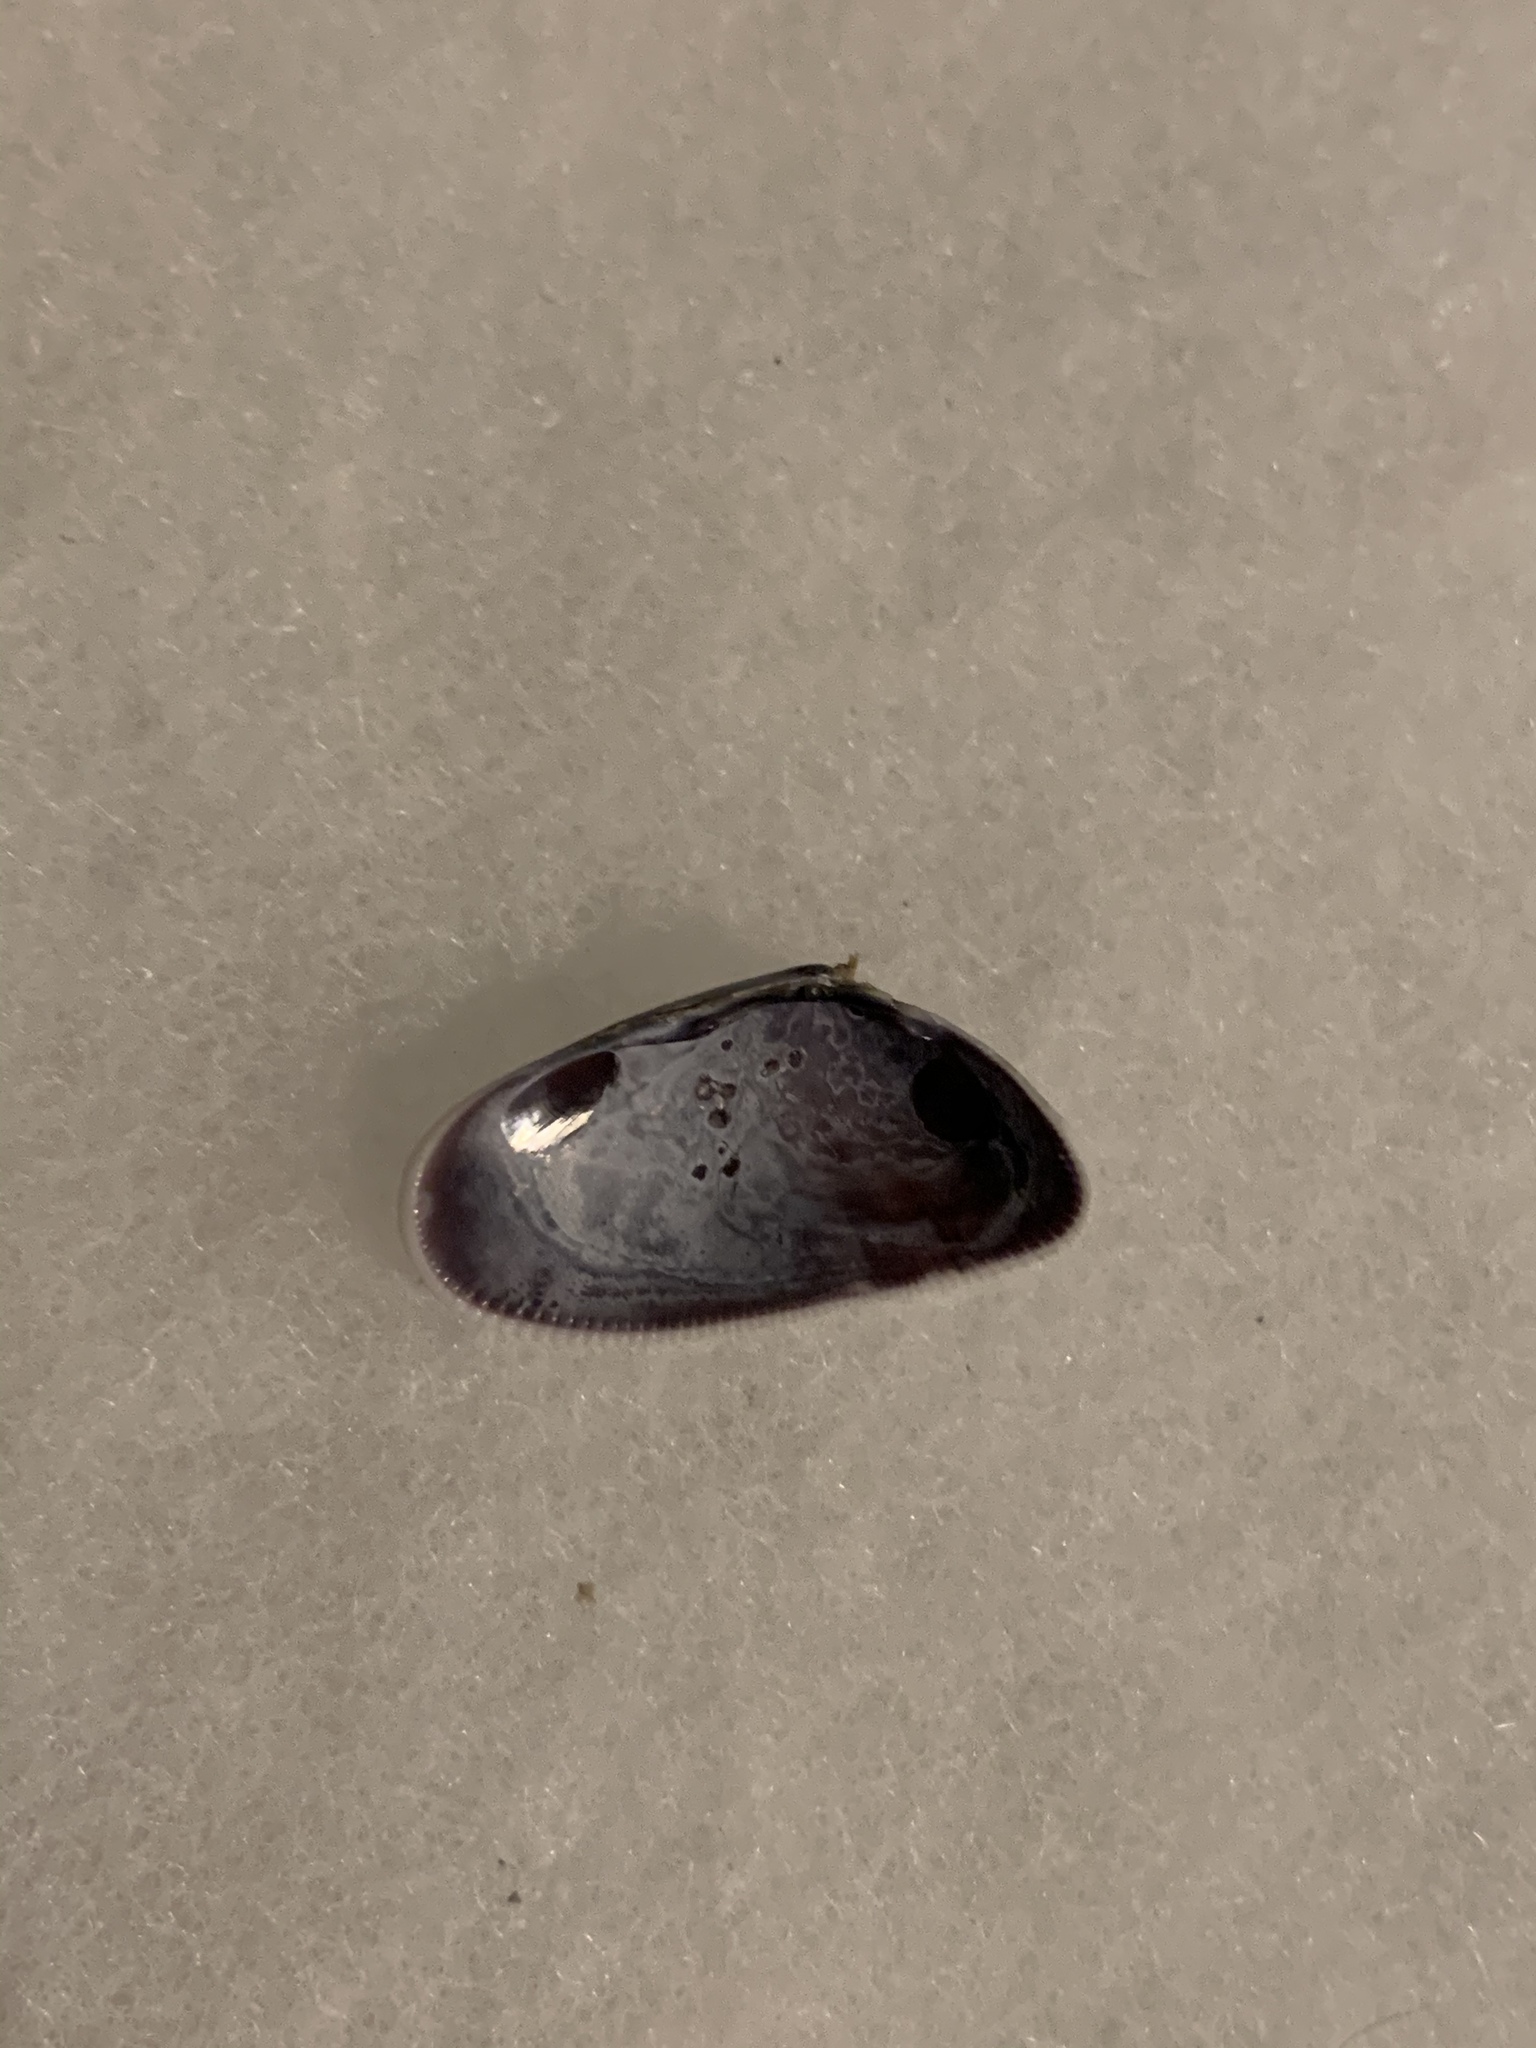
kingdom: Animalia
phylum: Mollusca
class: Bivalvia
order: Cardiida
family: Donacidae
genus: Donax
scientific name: Donax variabilis
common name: Butterfly shell
